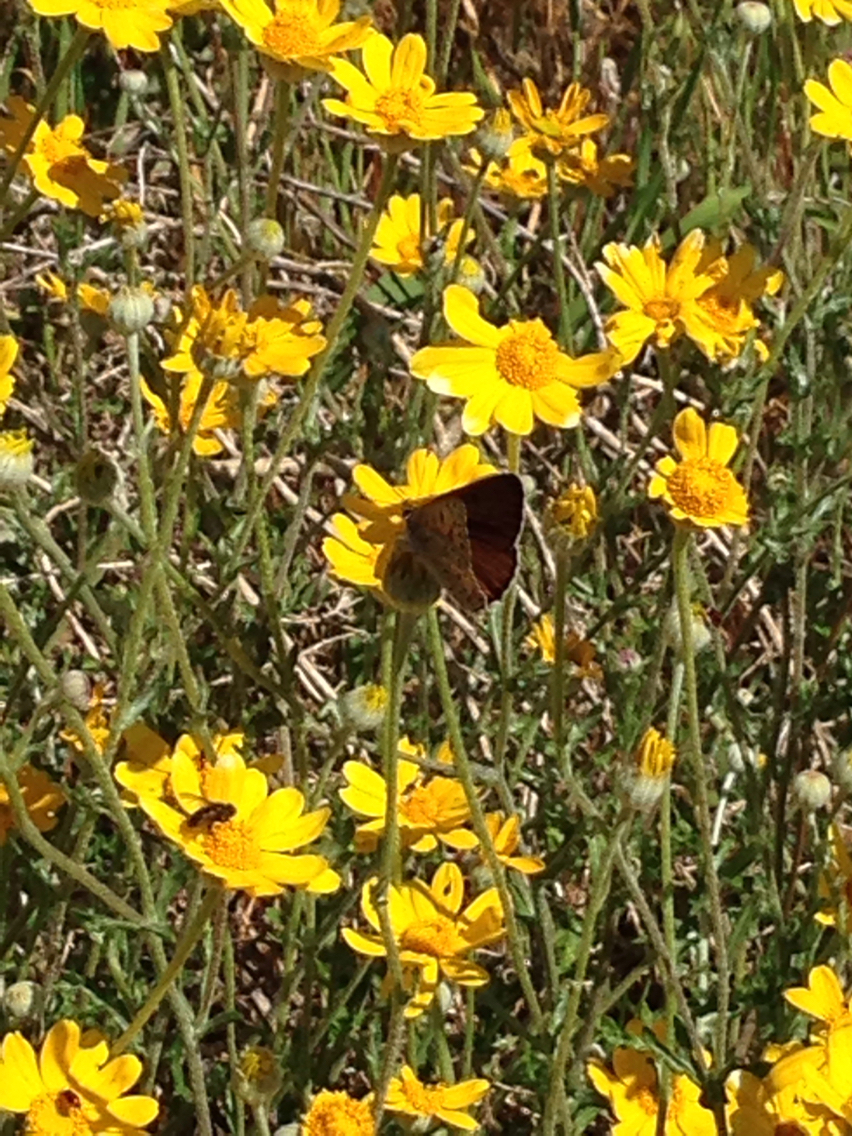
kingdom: Animalia
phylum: Arthropoda
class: Insecta
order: Lepidoptera
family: Lycaenidae
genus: Tharsalea
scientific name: Tharsalea gorgon
